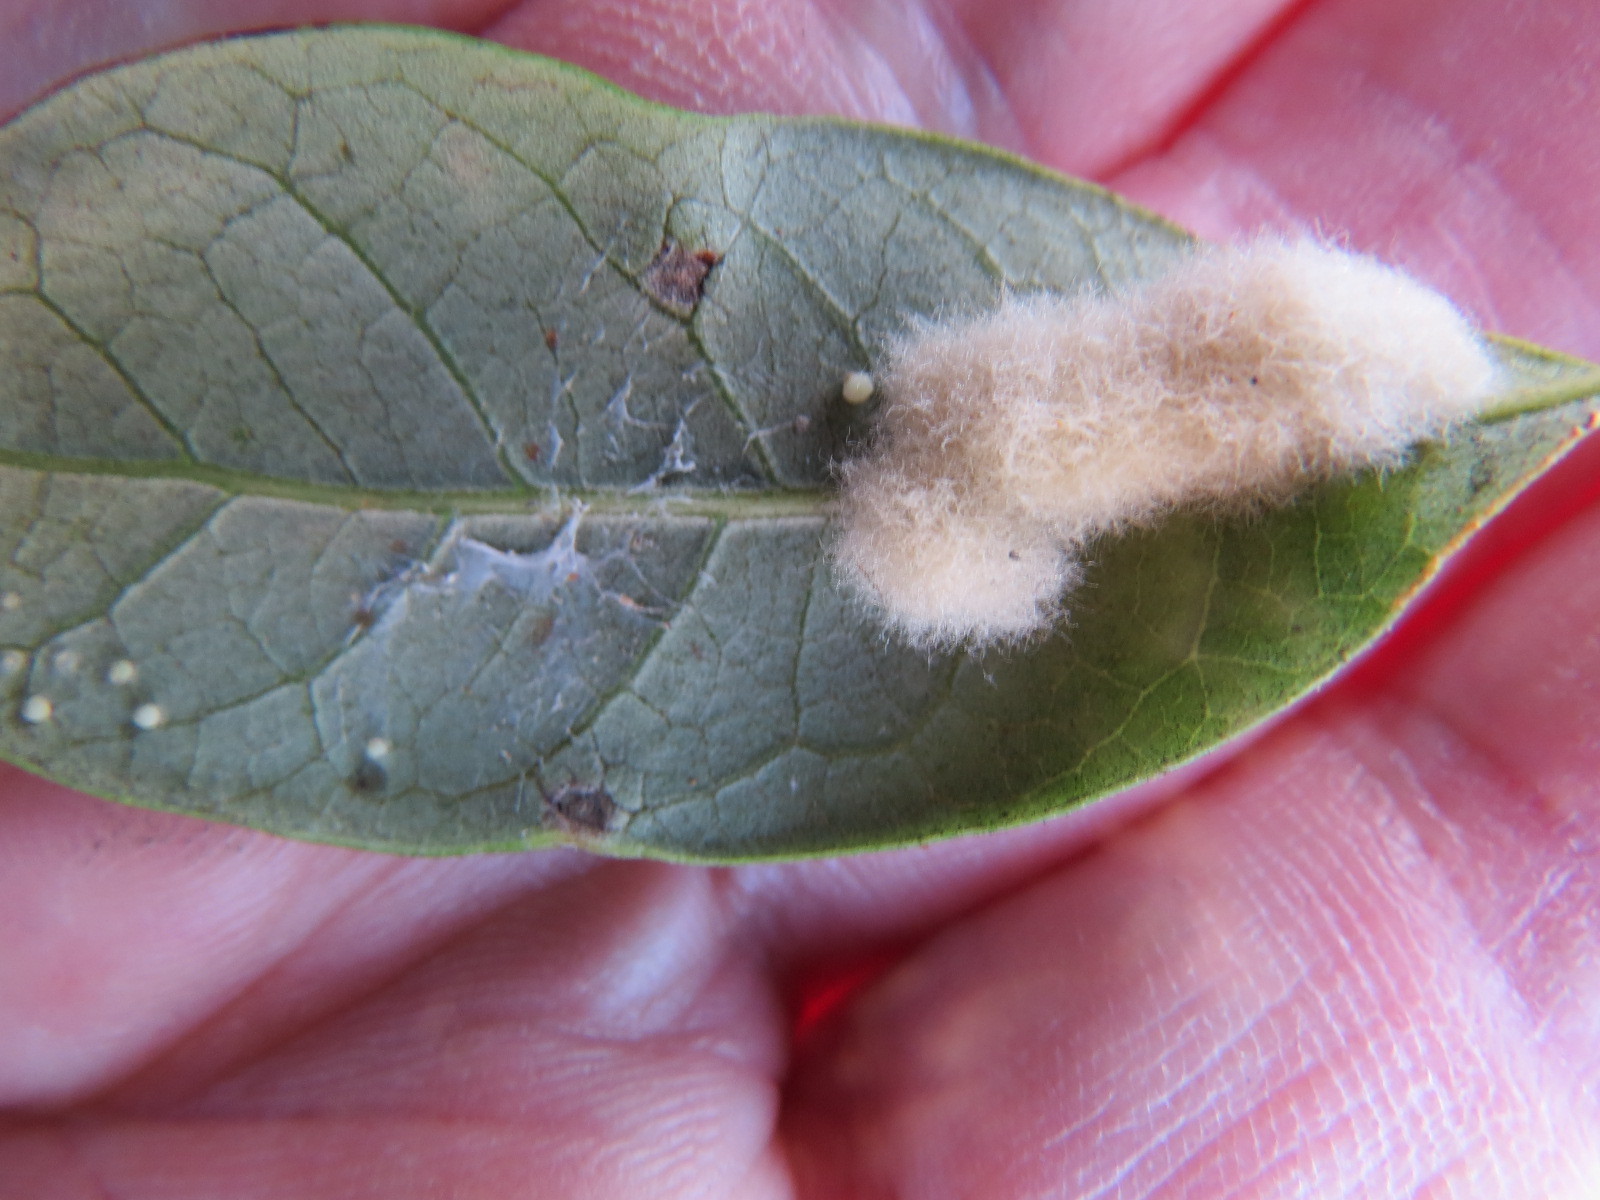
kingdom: Animalia
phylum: Arthropoda
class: Insecta
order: Hymenoptera
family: Cynipidae
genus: Andricus
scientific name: Andricus Druon quercuslanigerum
